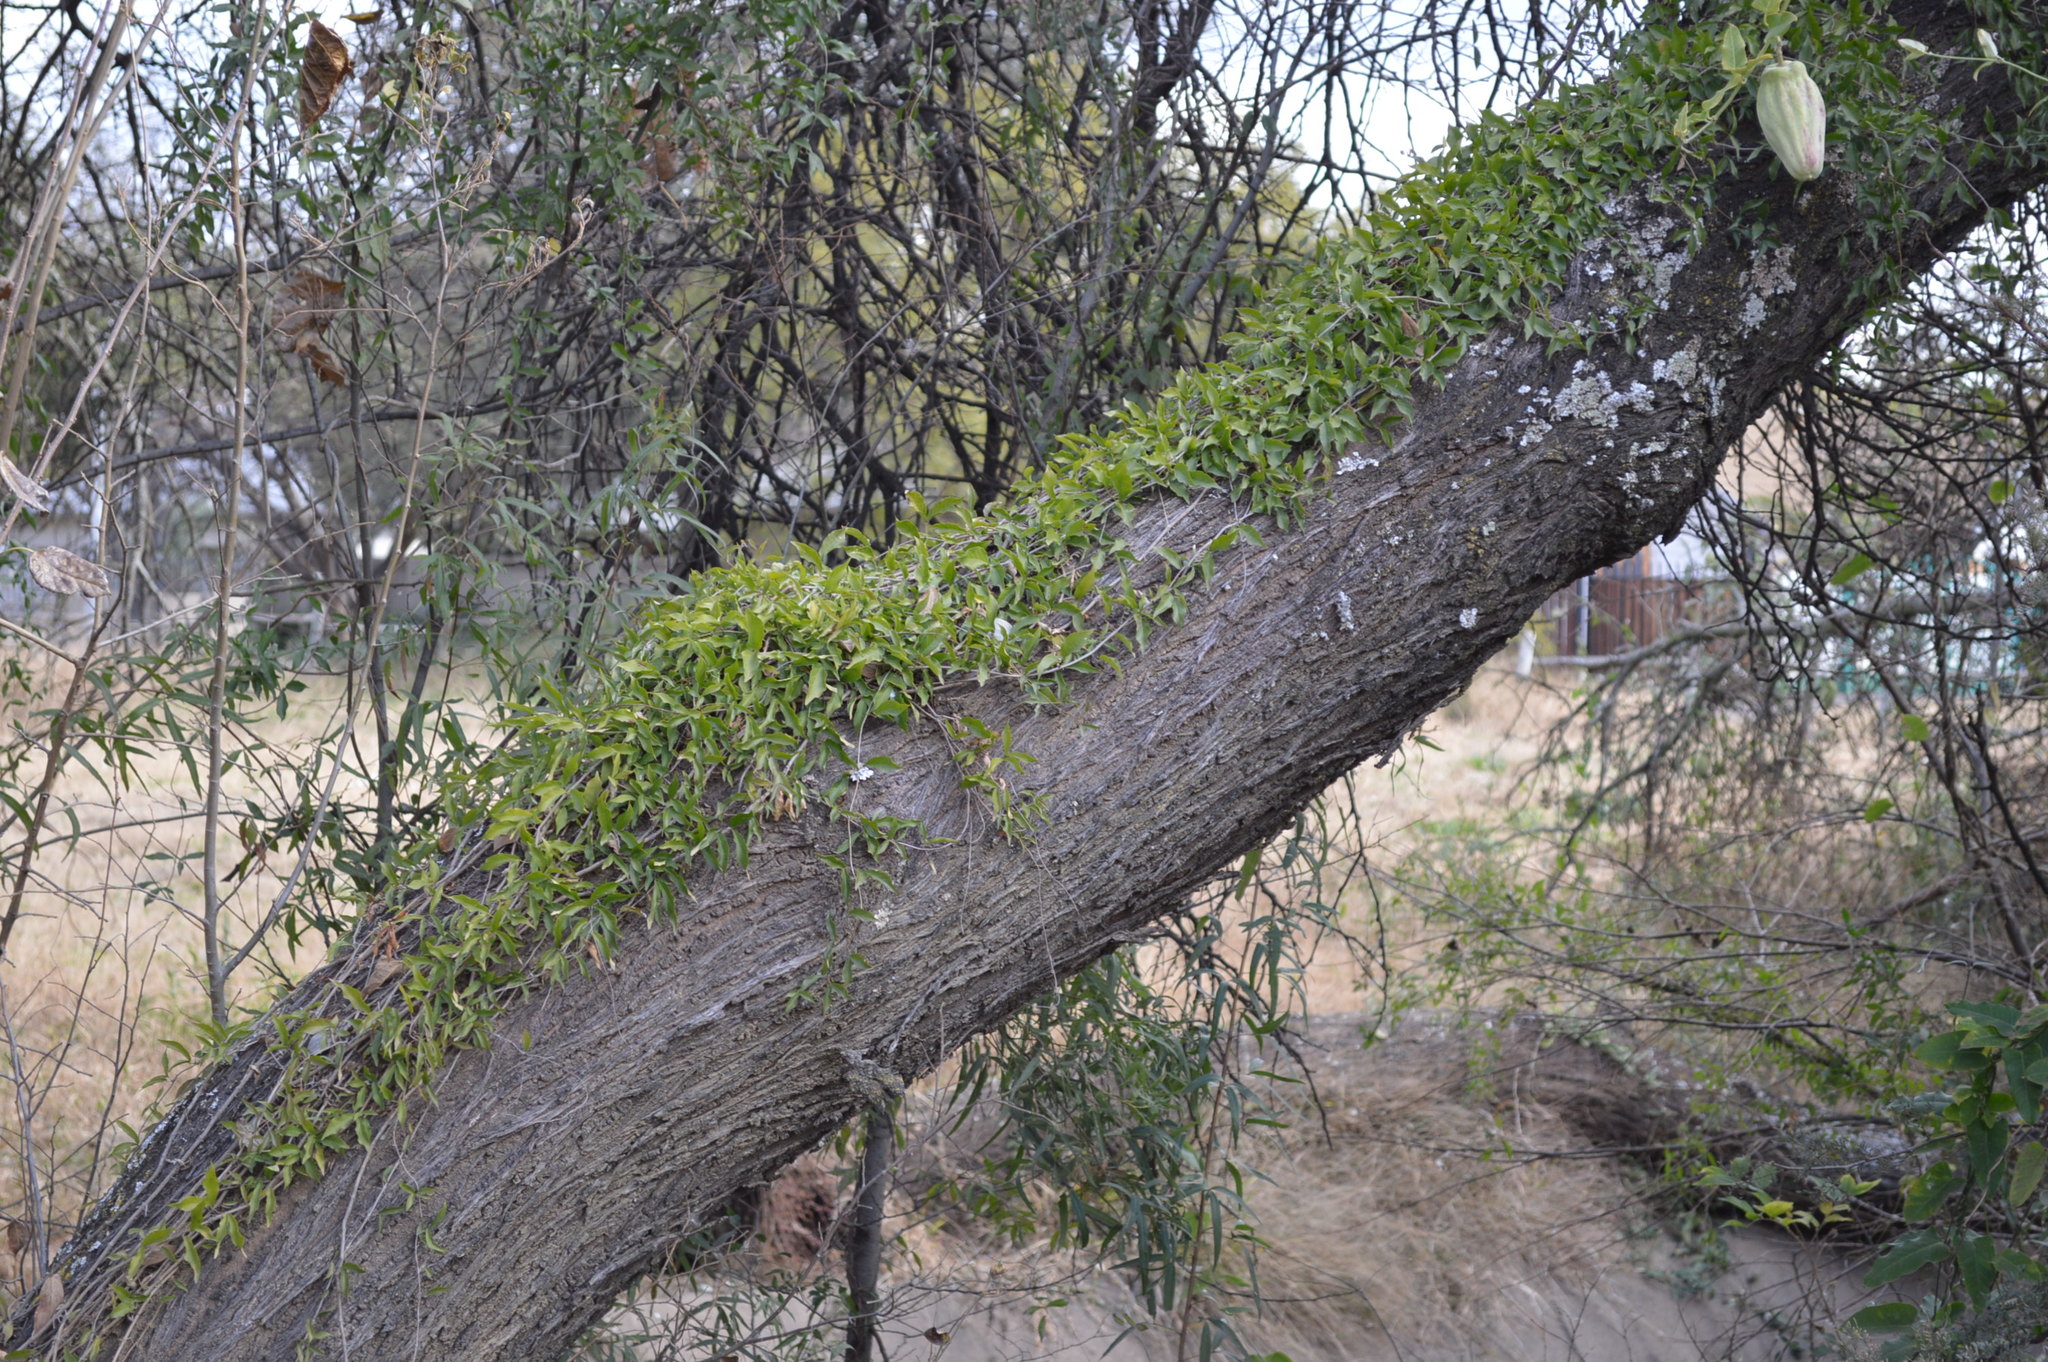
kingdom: Plantae
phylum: Tracheophyta
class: Magnoliopsida
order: Lamiales
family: Bignoniaceae
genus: Dolichandra
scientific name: Dolichandra unguis-cati
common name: Catclaw vine
